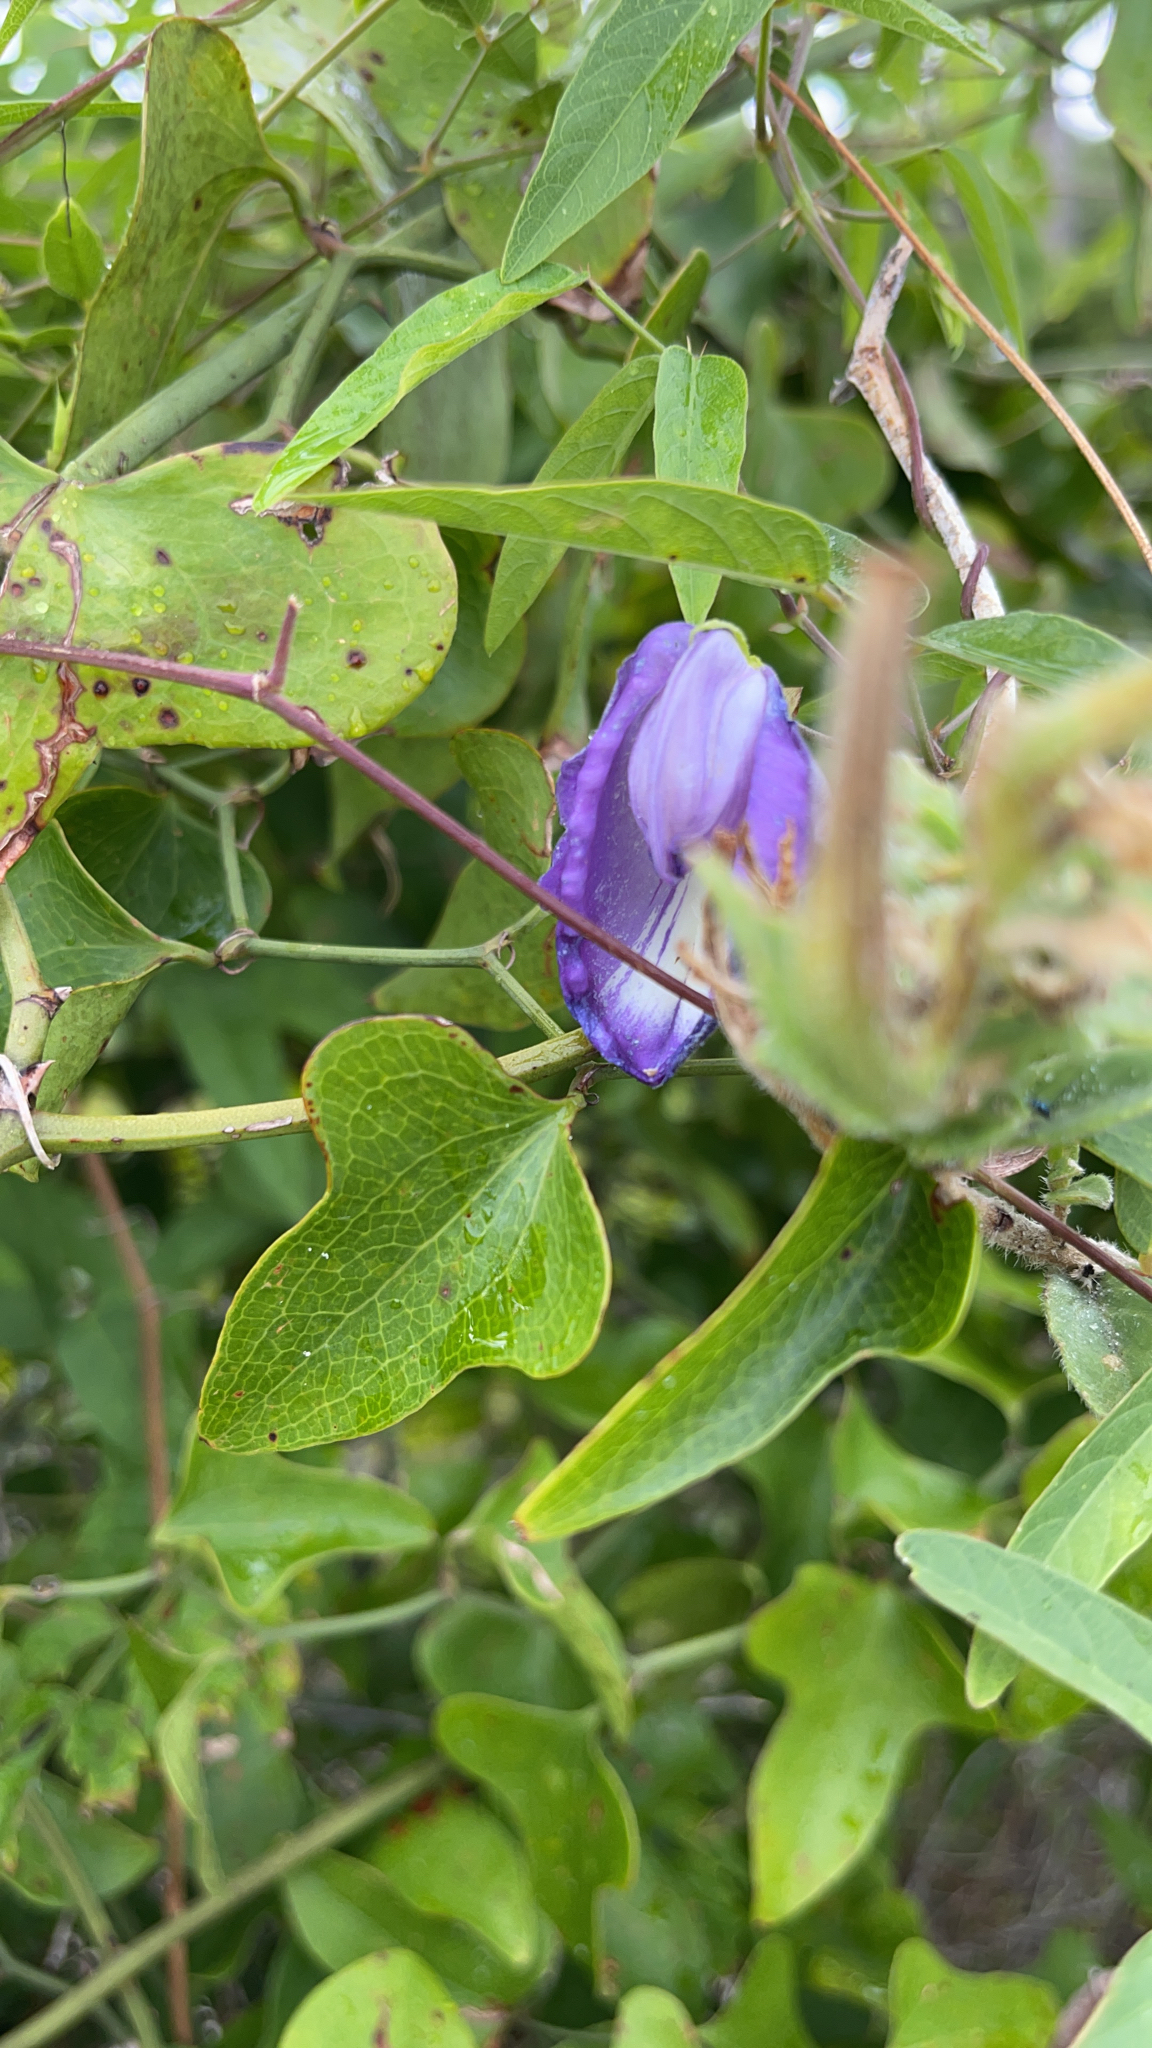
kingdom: Plantae
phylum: Tracheophyta
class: Magnoliopsida
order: Fabales
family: Fabaceae
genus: Centrosema
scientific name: Centrosema virginianum
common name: Butterfly-pea
